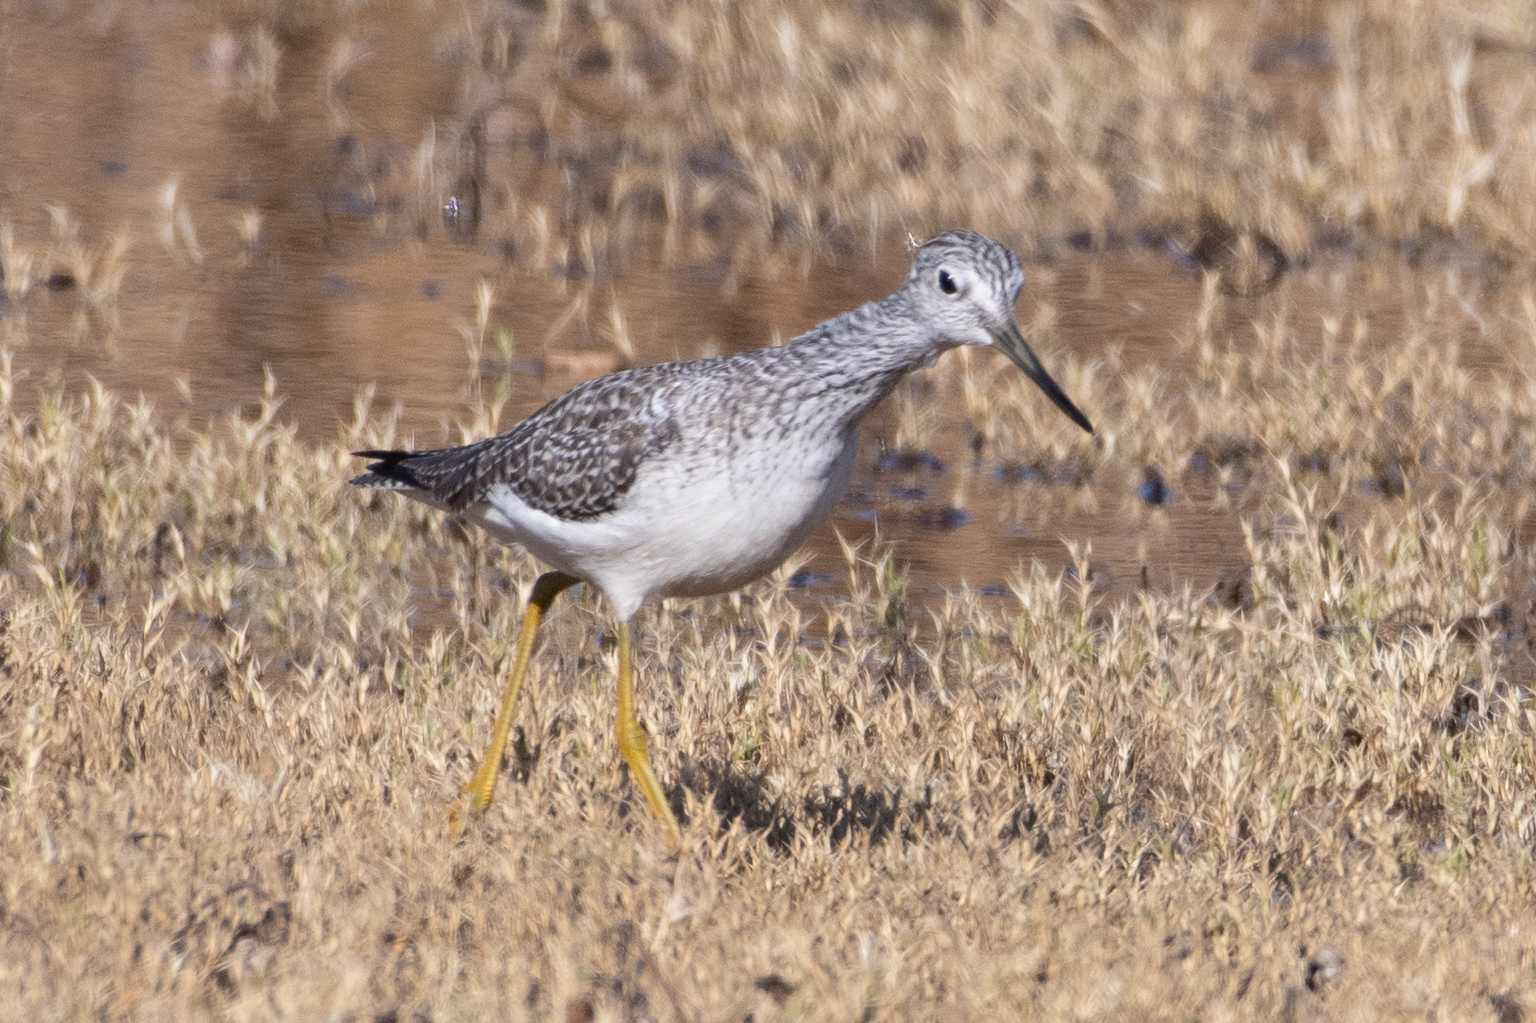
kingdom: Animalia
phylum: Chordata
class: Aves
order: Charadriiformes
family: Scolopacidae
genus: Tringa
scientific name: Tringa melanoleuca
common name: Greater yellowlegs
